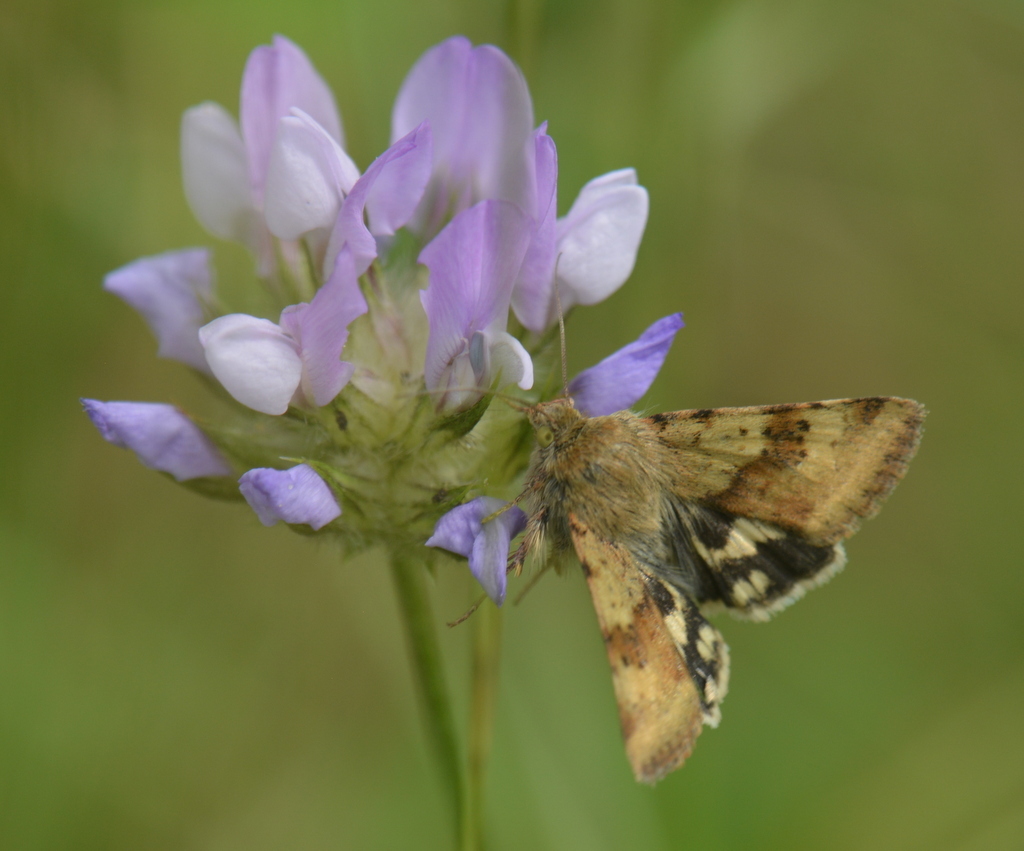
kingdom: Animalia
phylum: Arthropoda
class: Insecta
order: Lepidoptera
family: Noctuidae
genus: Heliothis
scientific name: Heliothis viriplaca
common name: Marbled clover
